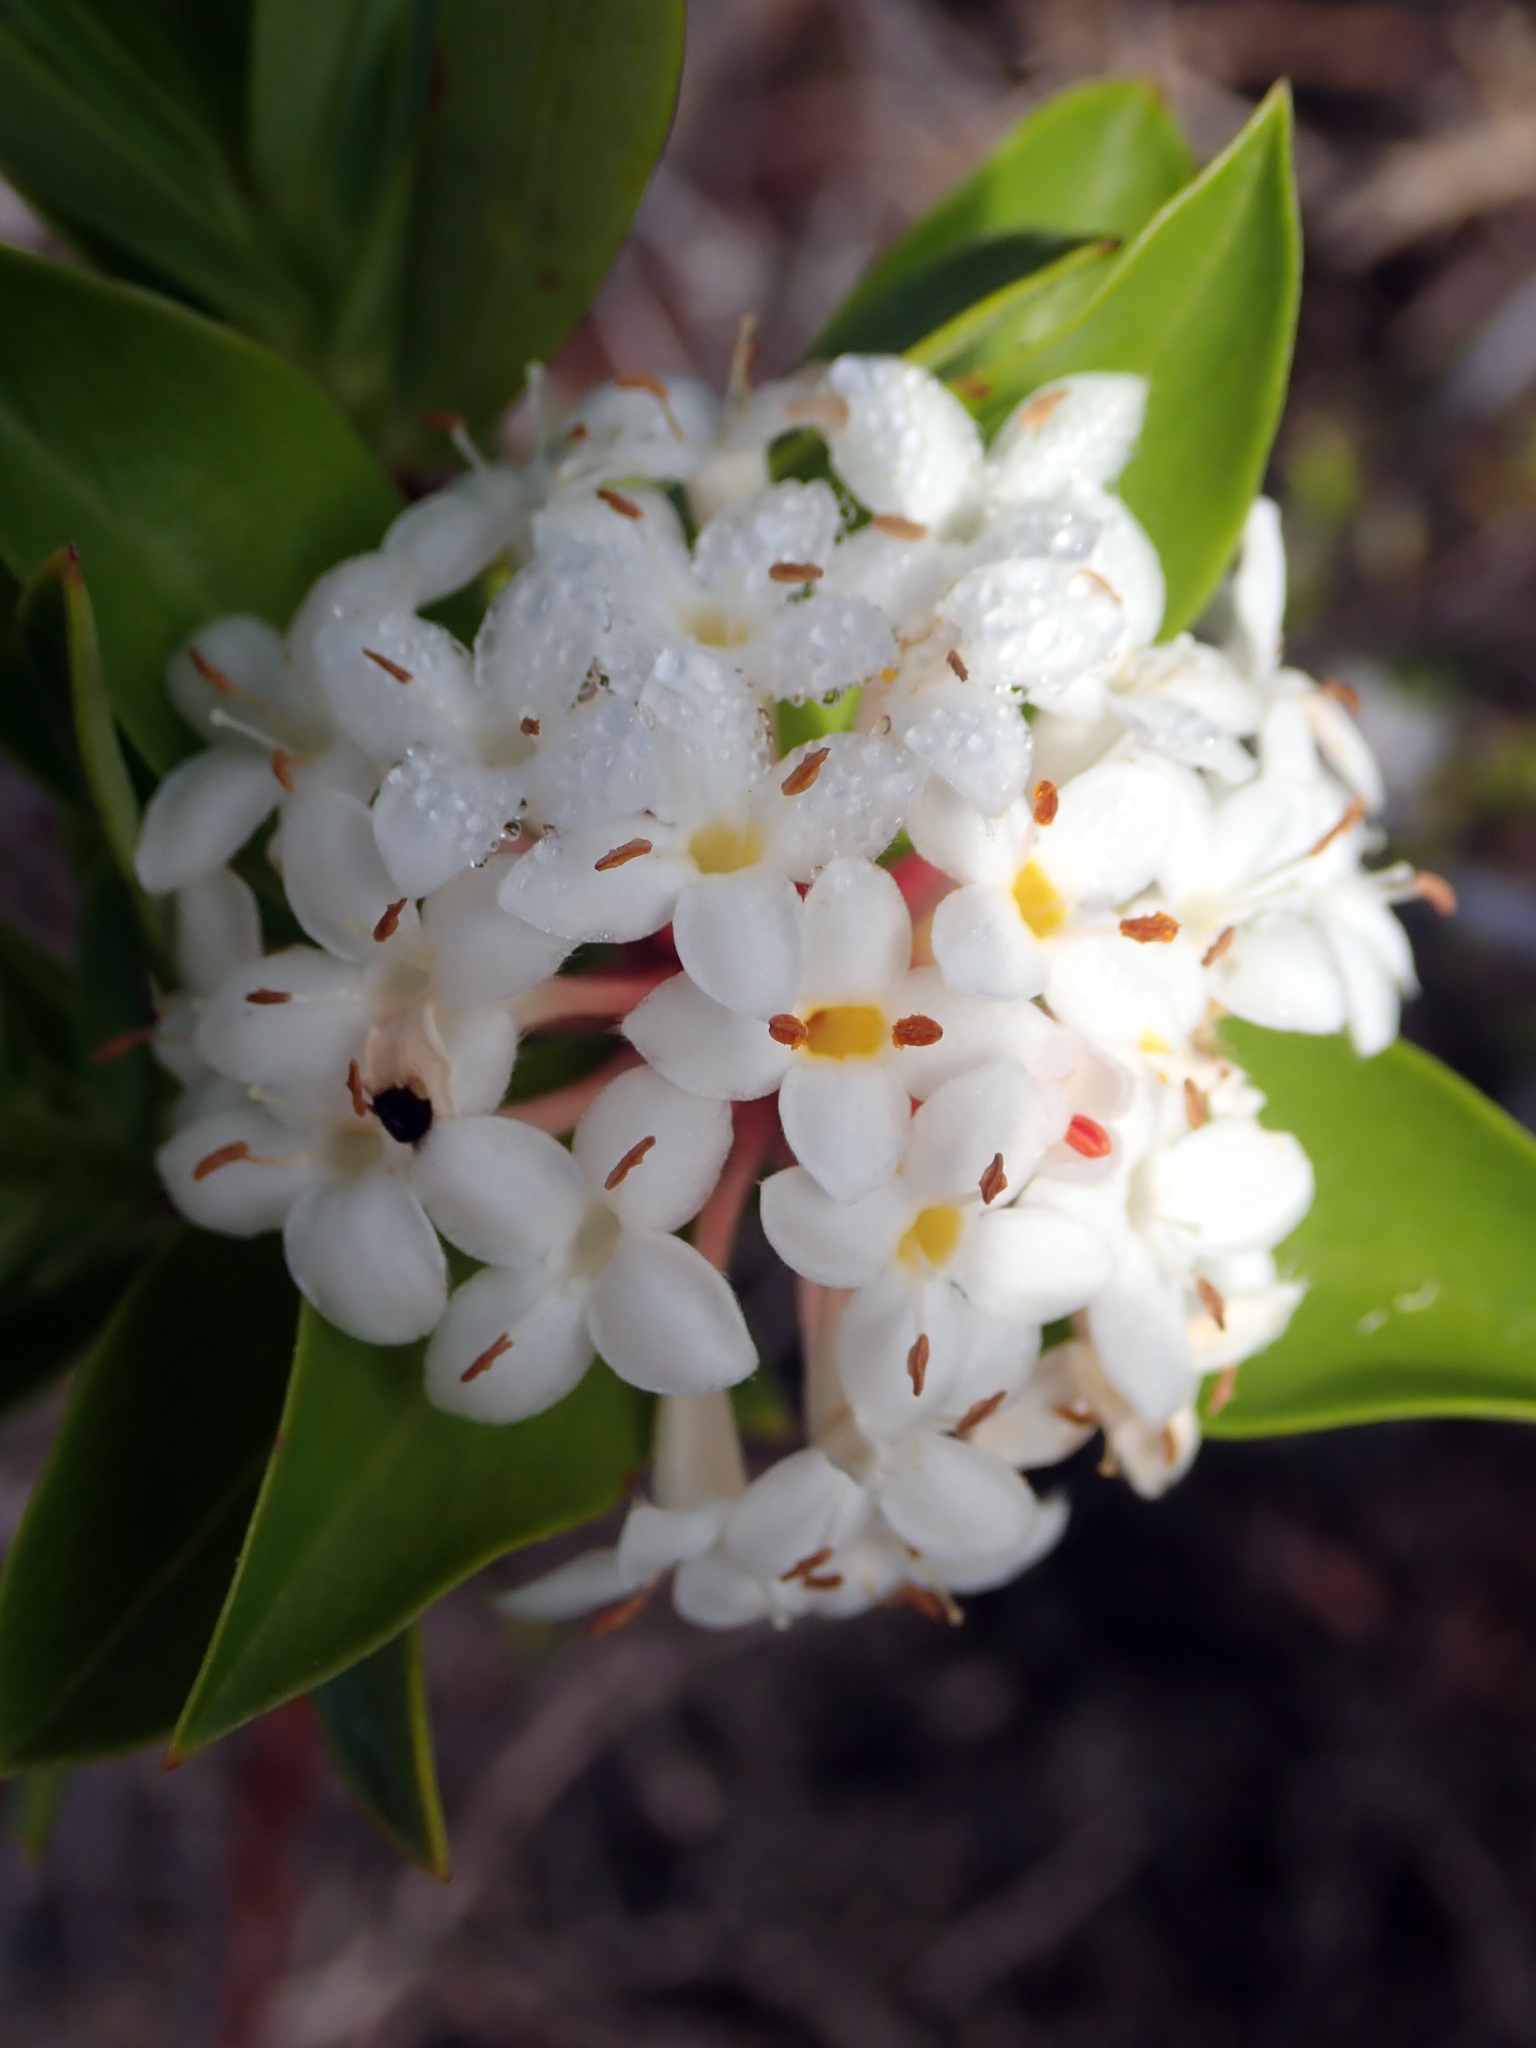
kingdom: Plantae
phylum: Tracheophyta
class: Magnoliopsida
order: Malvales
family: Thymelaeaceae
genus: Pimelea
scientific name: Pimelea longifolia
